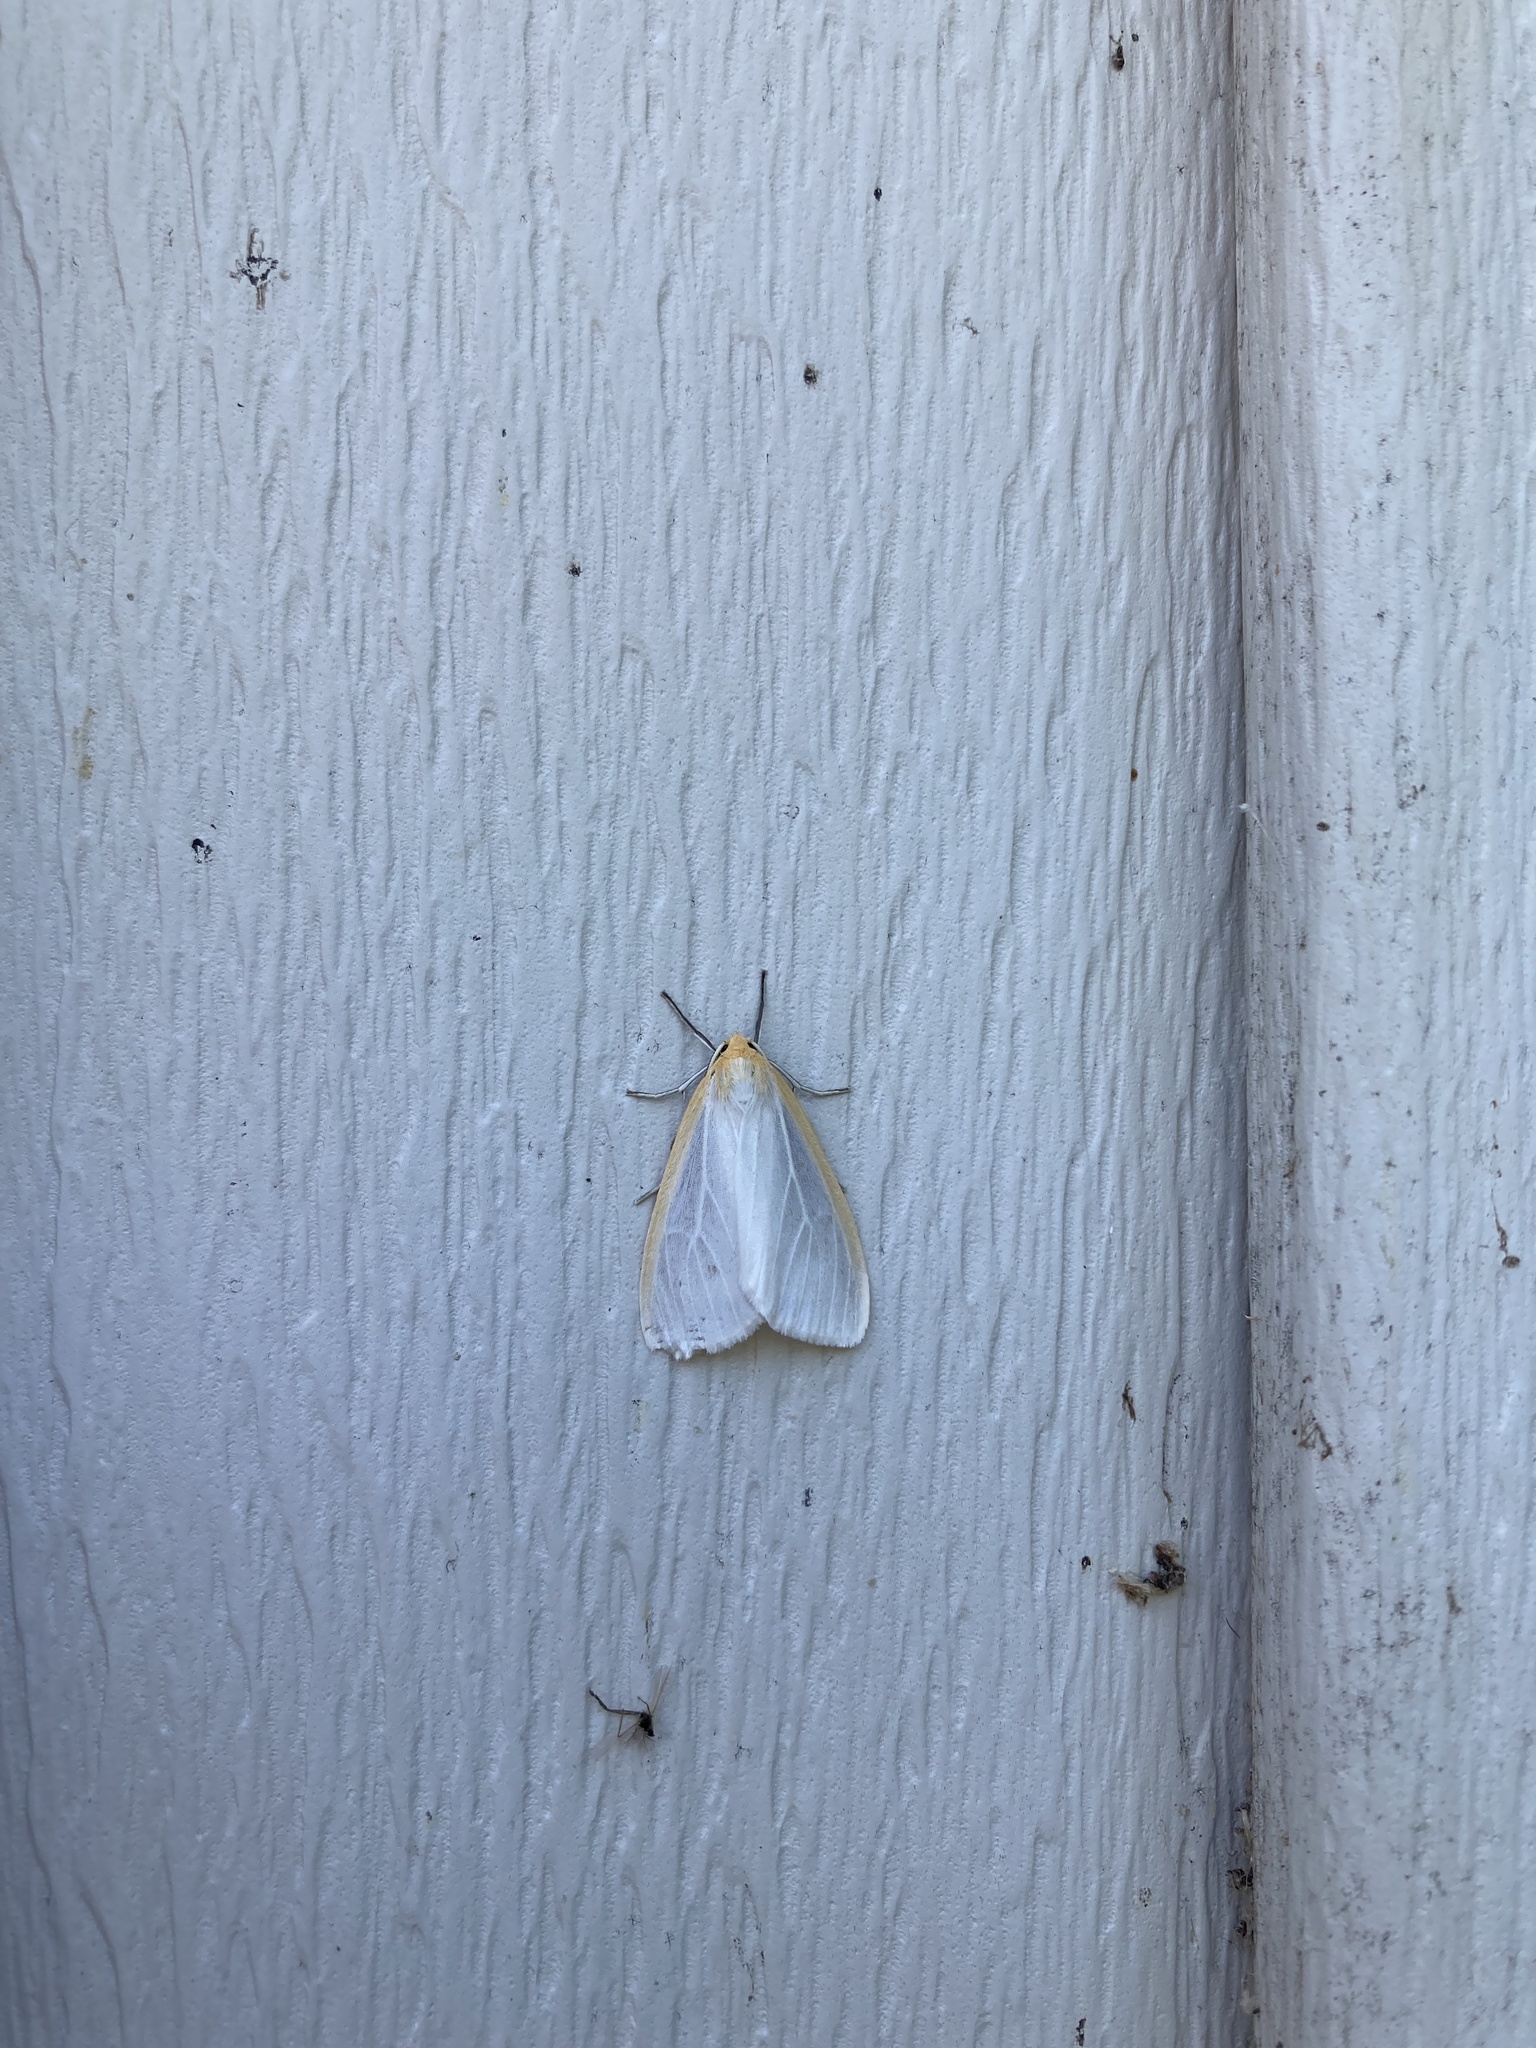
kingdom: Animalia
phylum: Arthropoda
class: Insecta
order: Lepidoptera
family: Erebidae
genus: Cycnia
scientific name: Cycnia tenera
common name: Delicate cycnia moth
